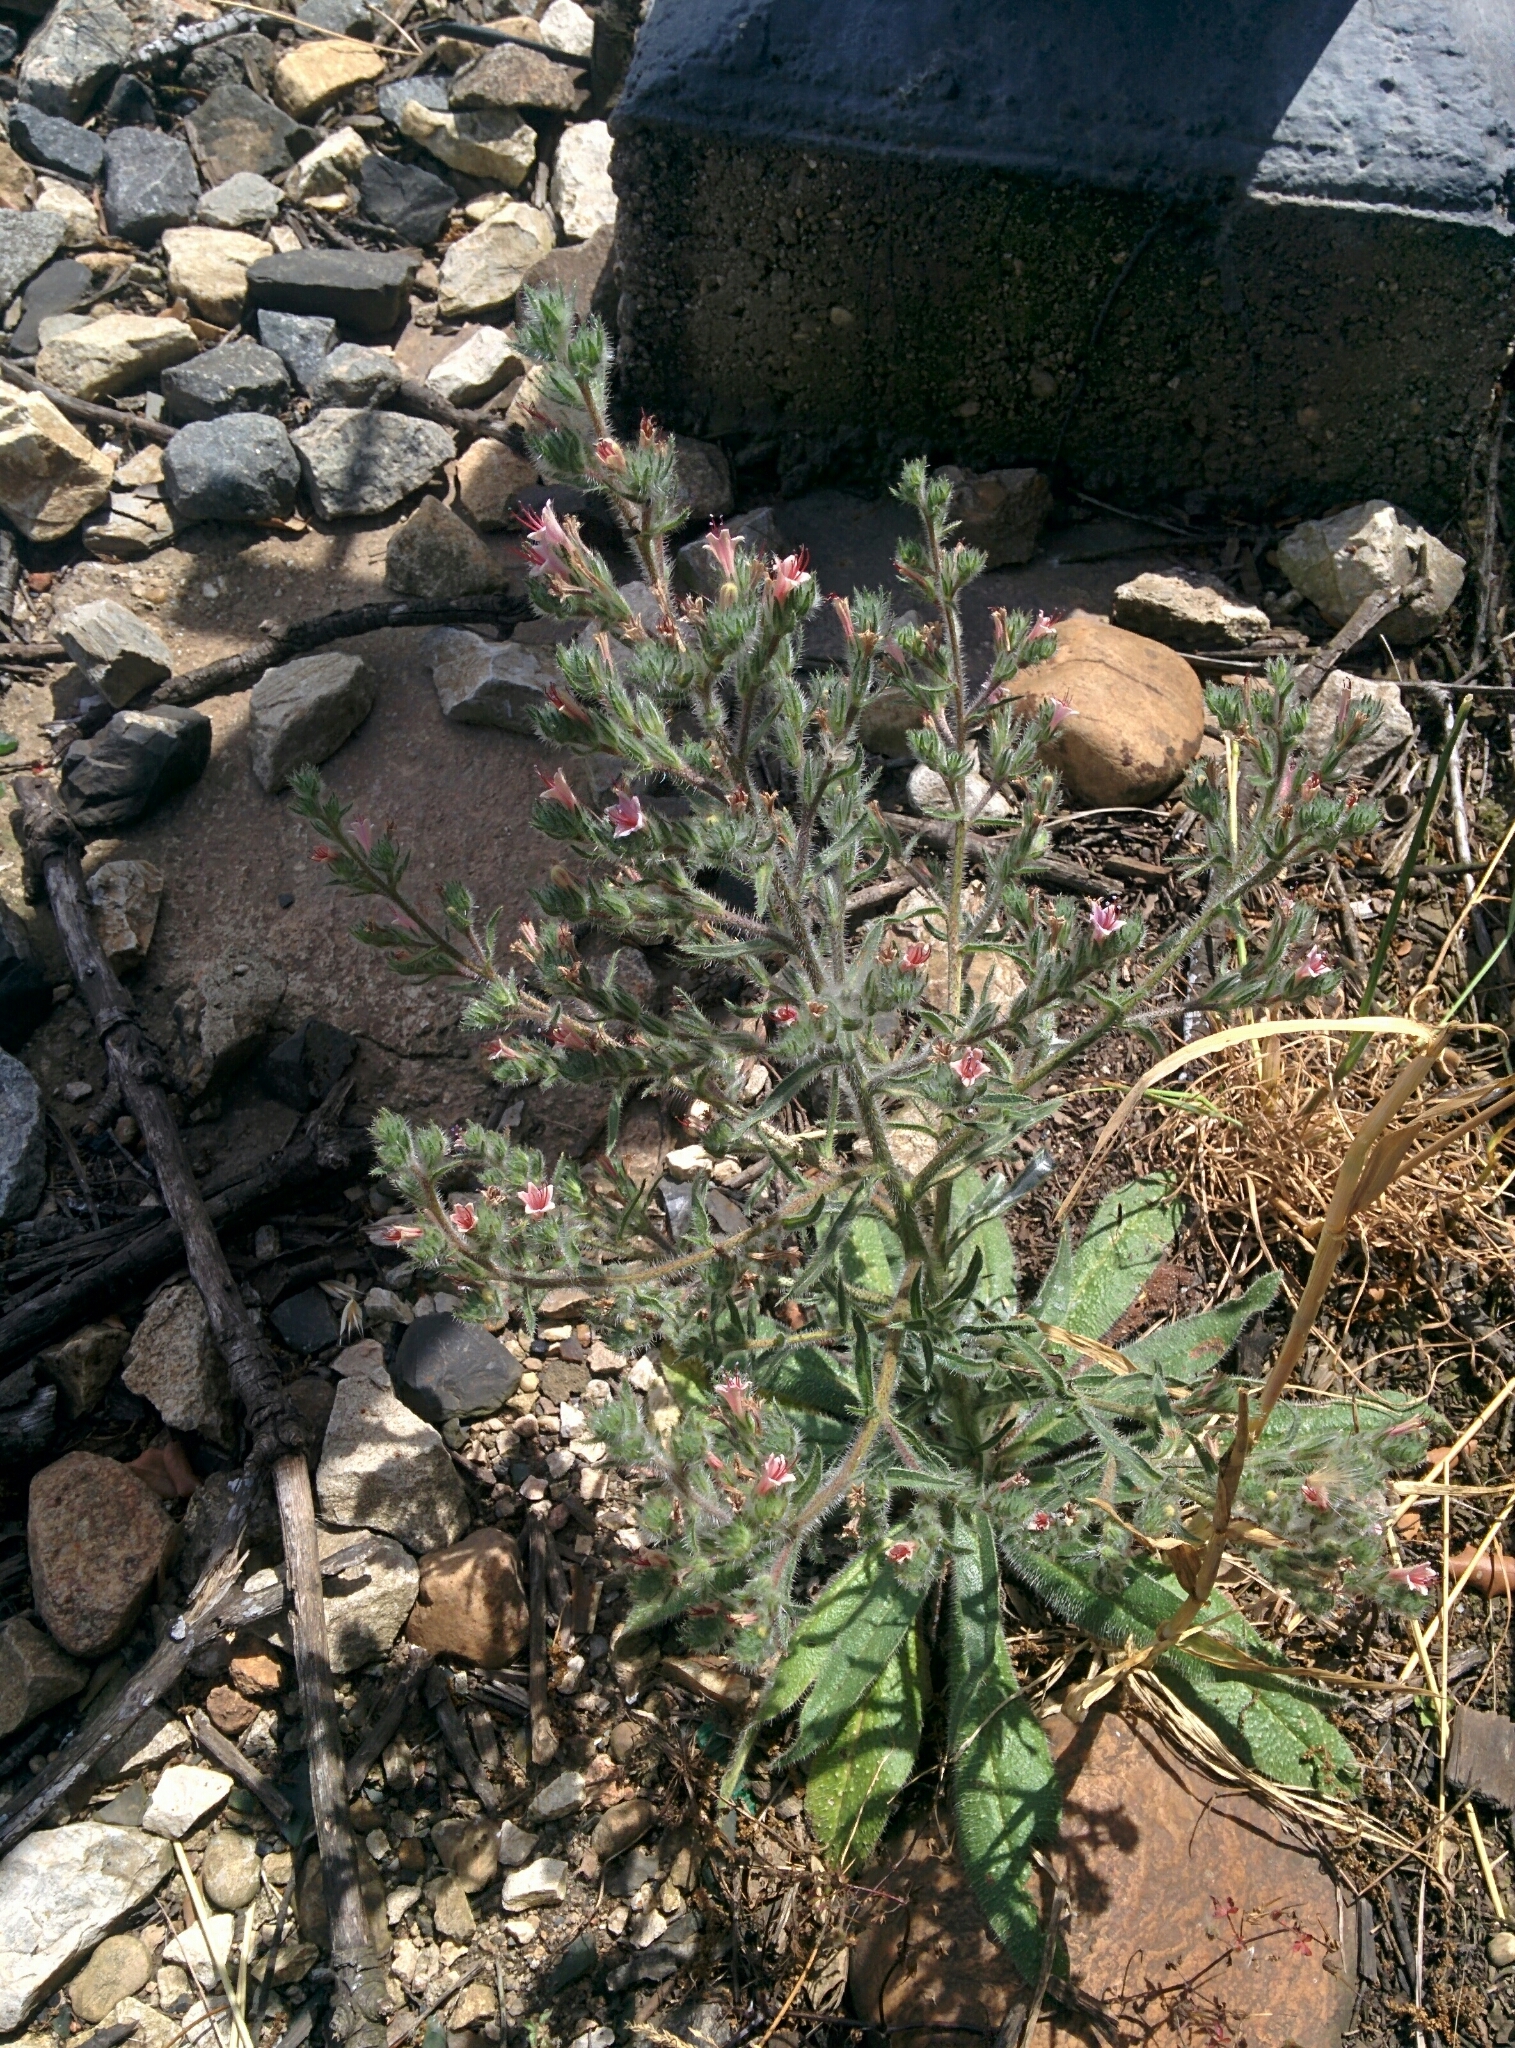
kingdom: Plantae
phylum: Tracheophyta
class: Magnoliopsida
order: Boraginales
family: Boraginaceae
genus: Echium
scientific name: Echium asperrimum
